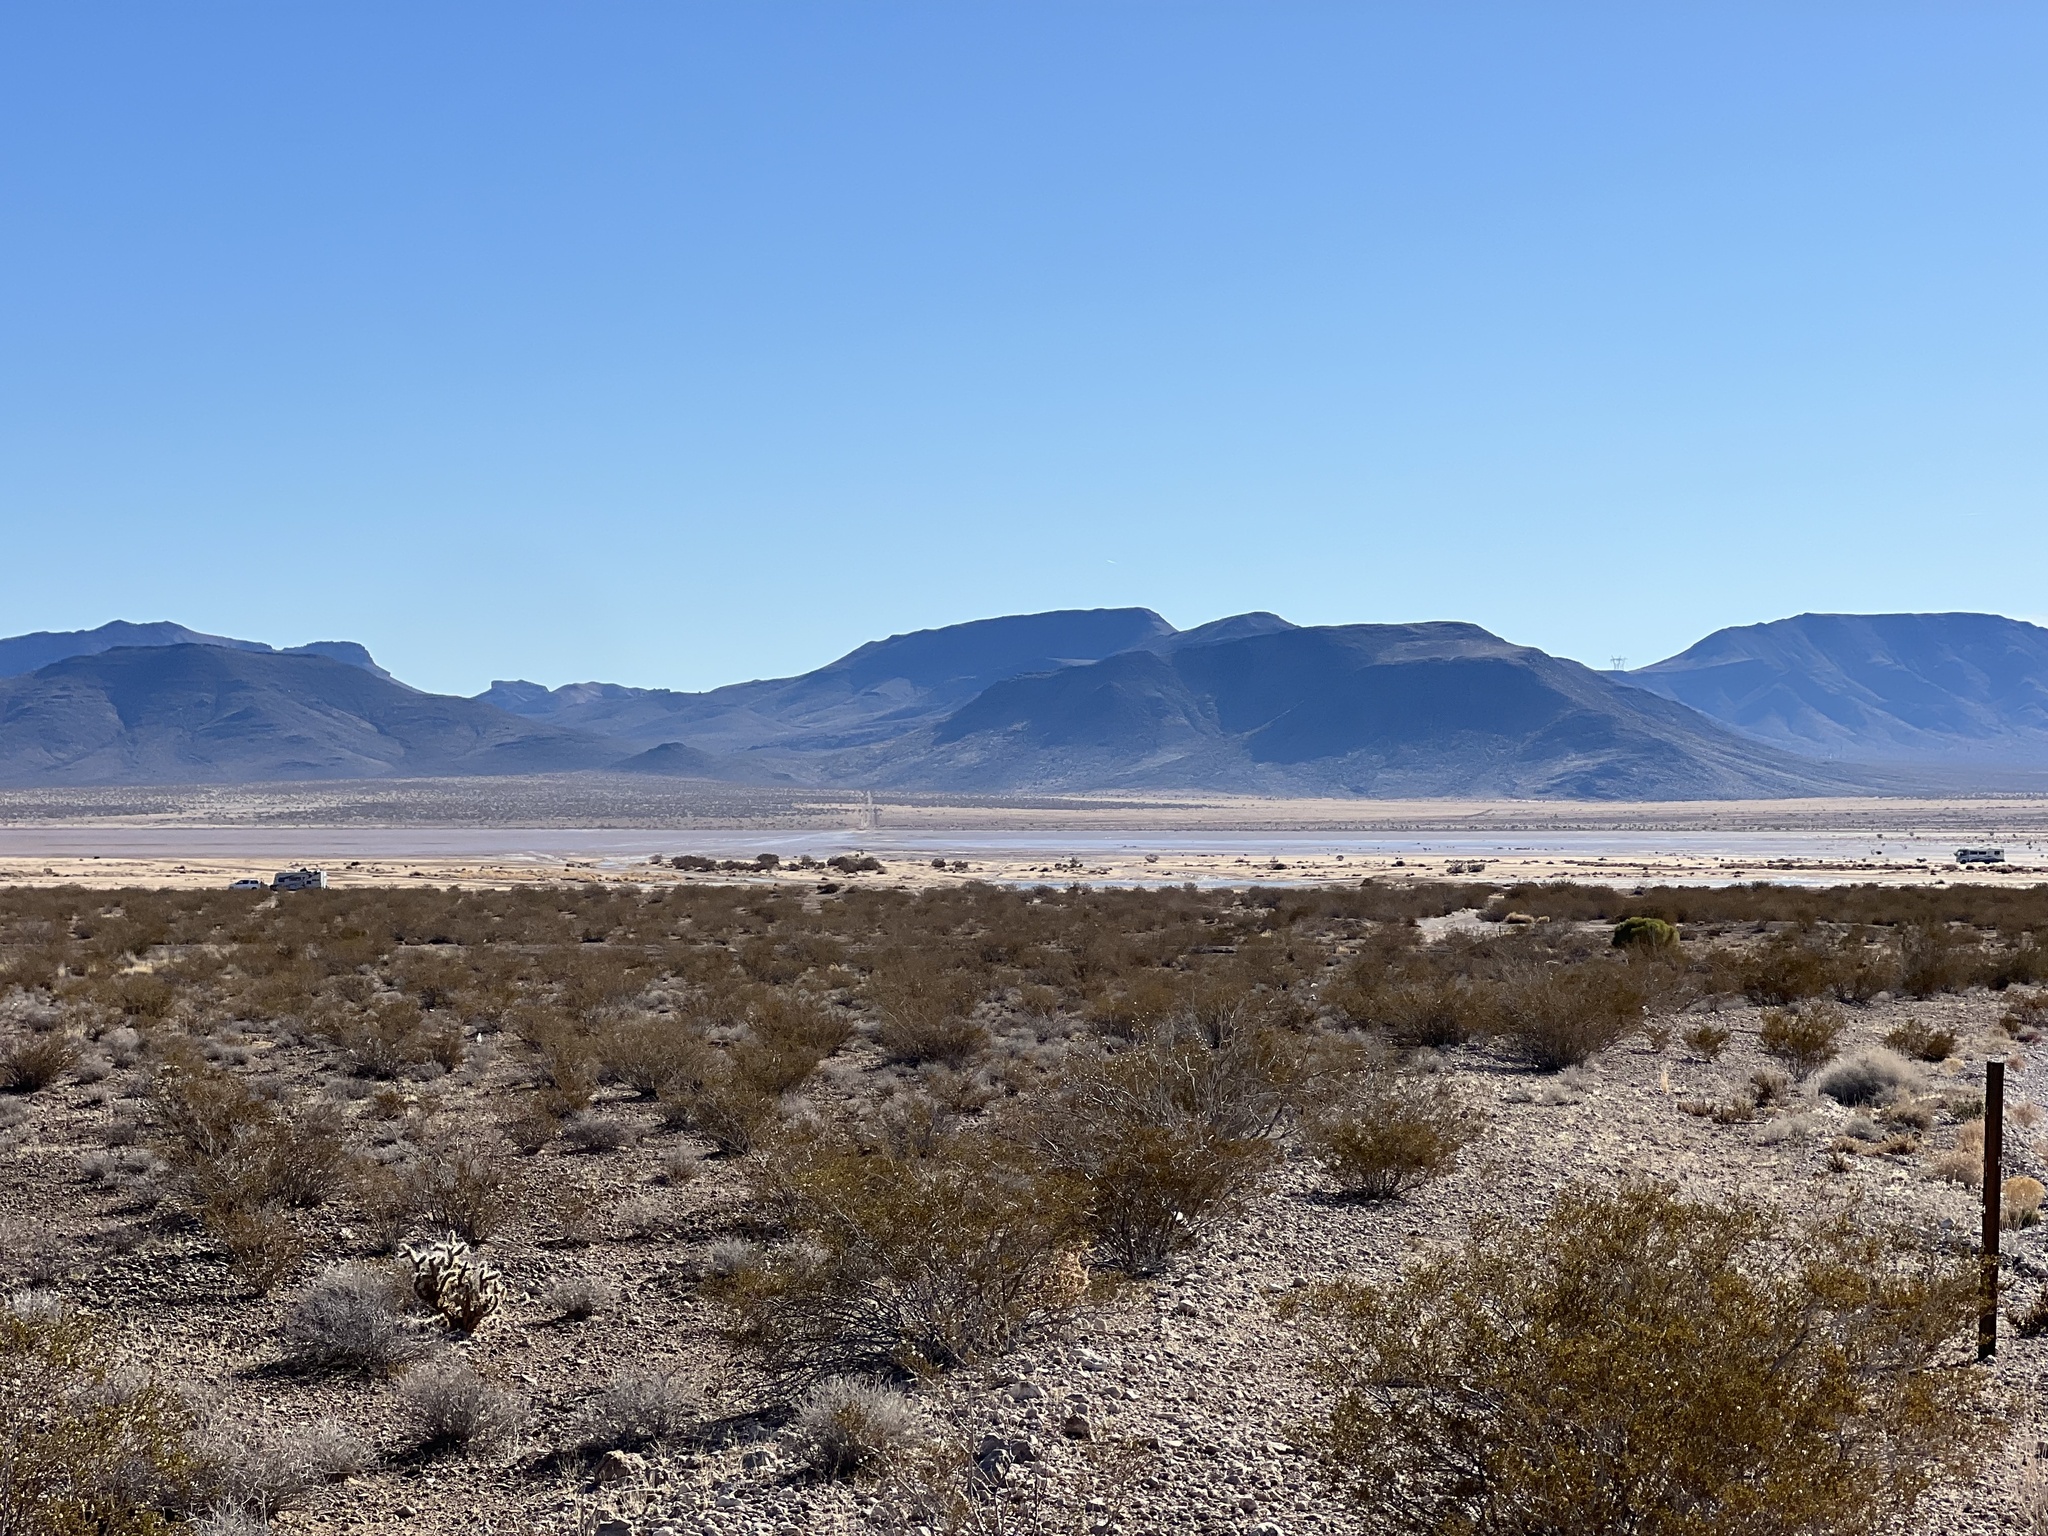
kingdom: Plantae
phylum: Tracheophyta
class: Magnoliopsida
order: Zygophyllales
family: Zygophyllaceae
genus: Larrea
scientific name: Larrea tridentata
